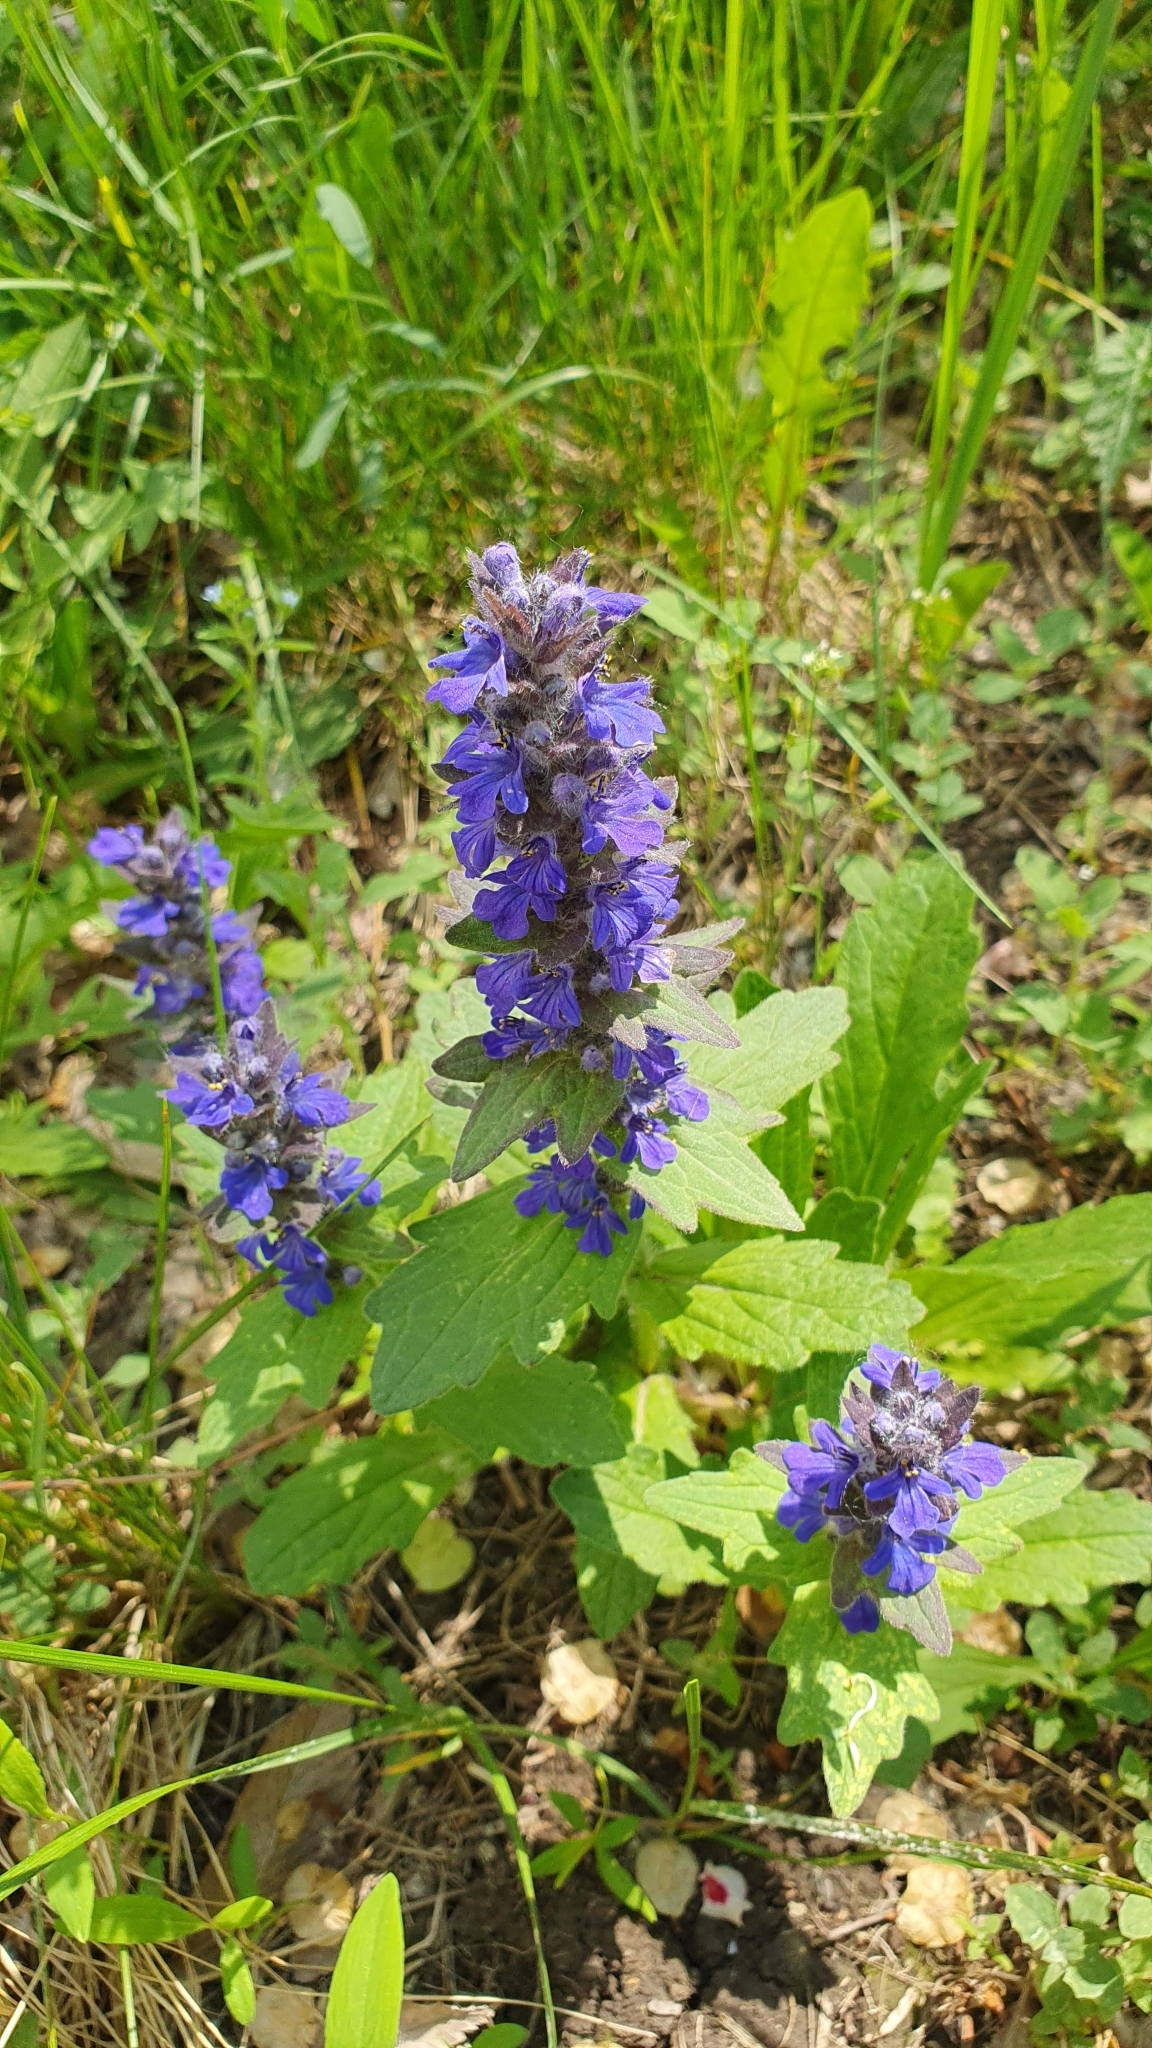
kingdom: Plantae
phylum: Tracheophyta
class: Magnoliopsida
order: Lamiales
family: Lamiaceae
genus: Ajuga
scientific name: Ajuga genevensis
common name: Blue bugle
